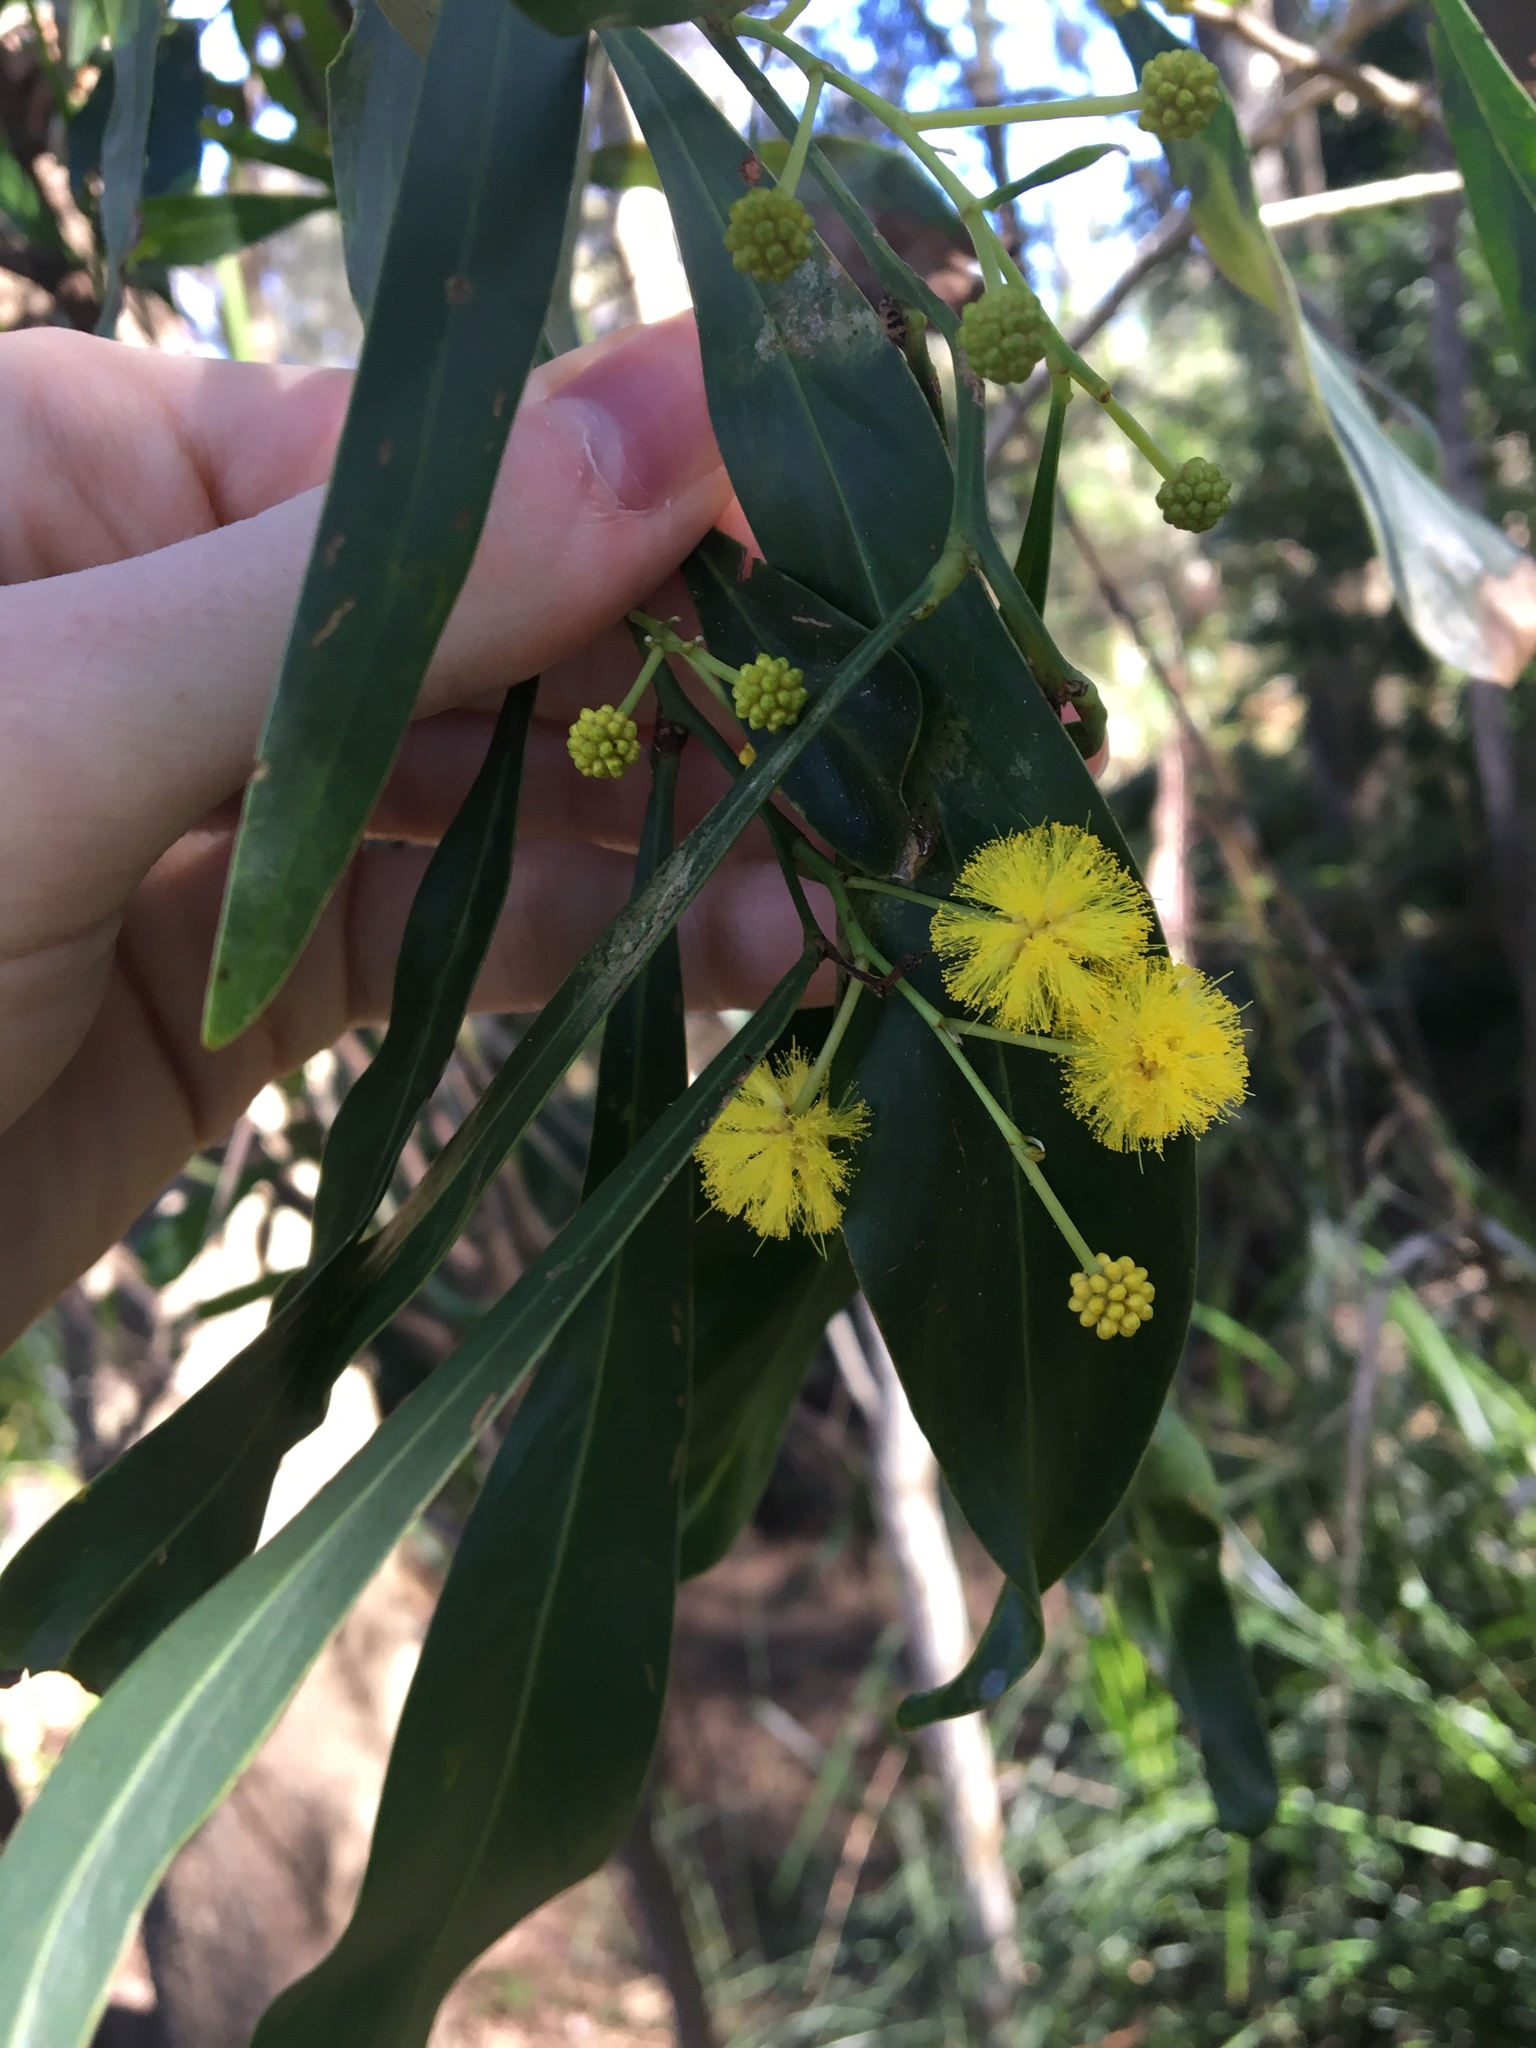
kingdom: Plantae
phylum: Tracheophyta
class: Magnoliopsida
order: Fabales
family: Fabaceae
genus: Acacia
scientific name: Acacia saligna
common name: Orange wattle
